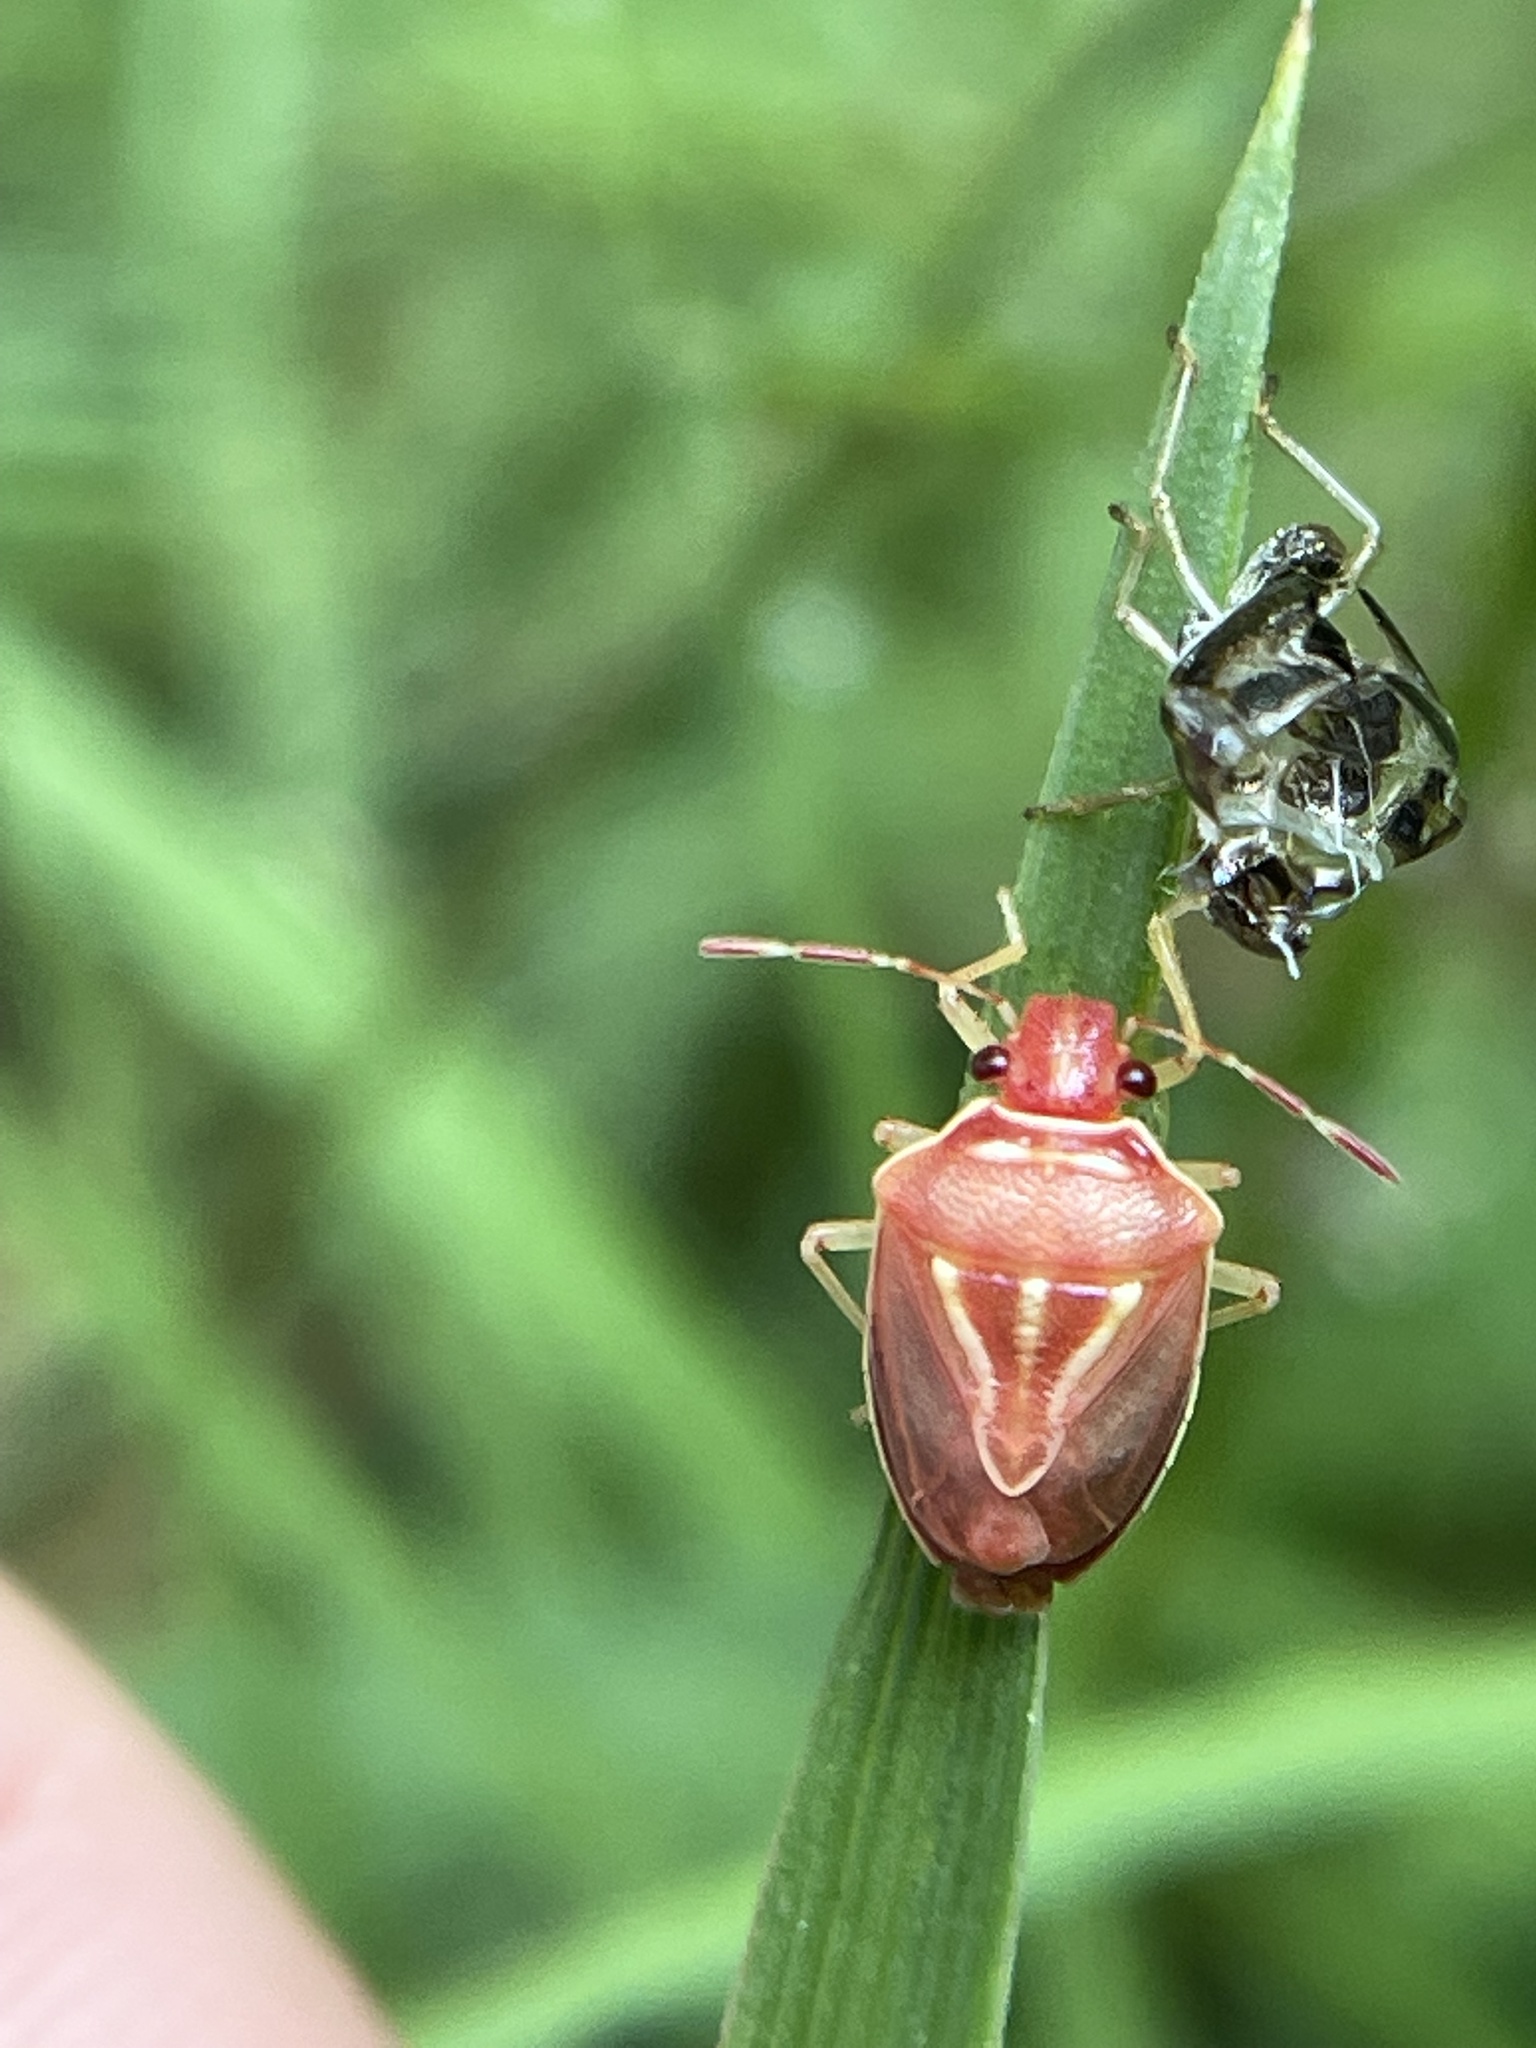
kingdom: Animalia
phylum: Arthropoda
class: Insecta
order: Hemiptera
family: Pentatomidae
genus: Mormidea
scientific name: Mormidea lugens
